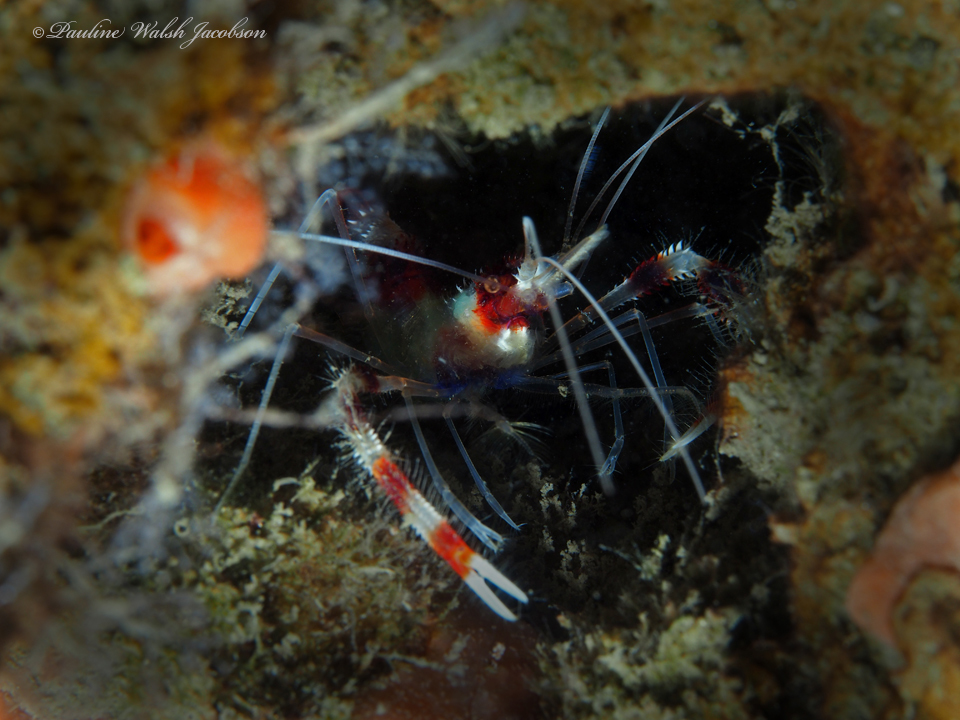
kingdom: Animalia
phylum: Arthropoda
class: Malacostraca
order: Decapoda
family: Stenopodidae
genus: Stenopus
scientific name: Stenopus hispidus
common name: Banded coral shrimp
